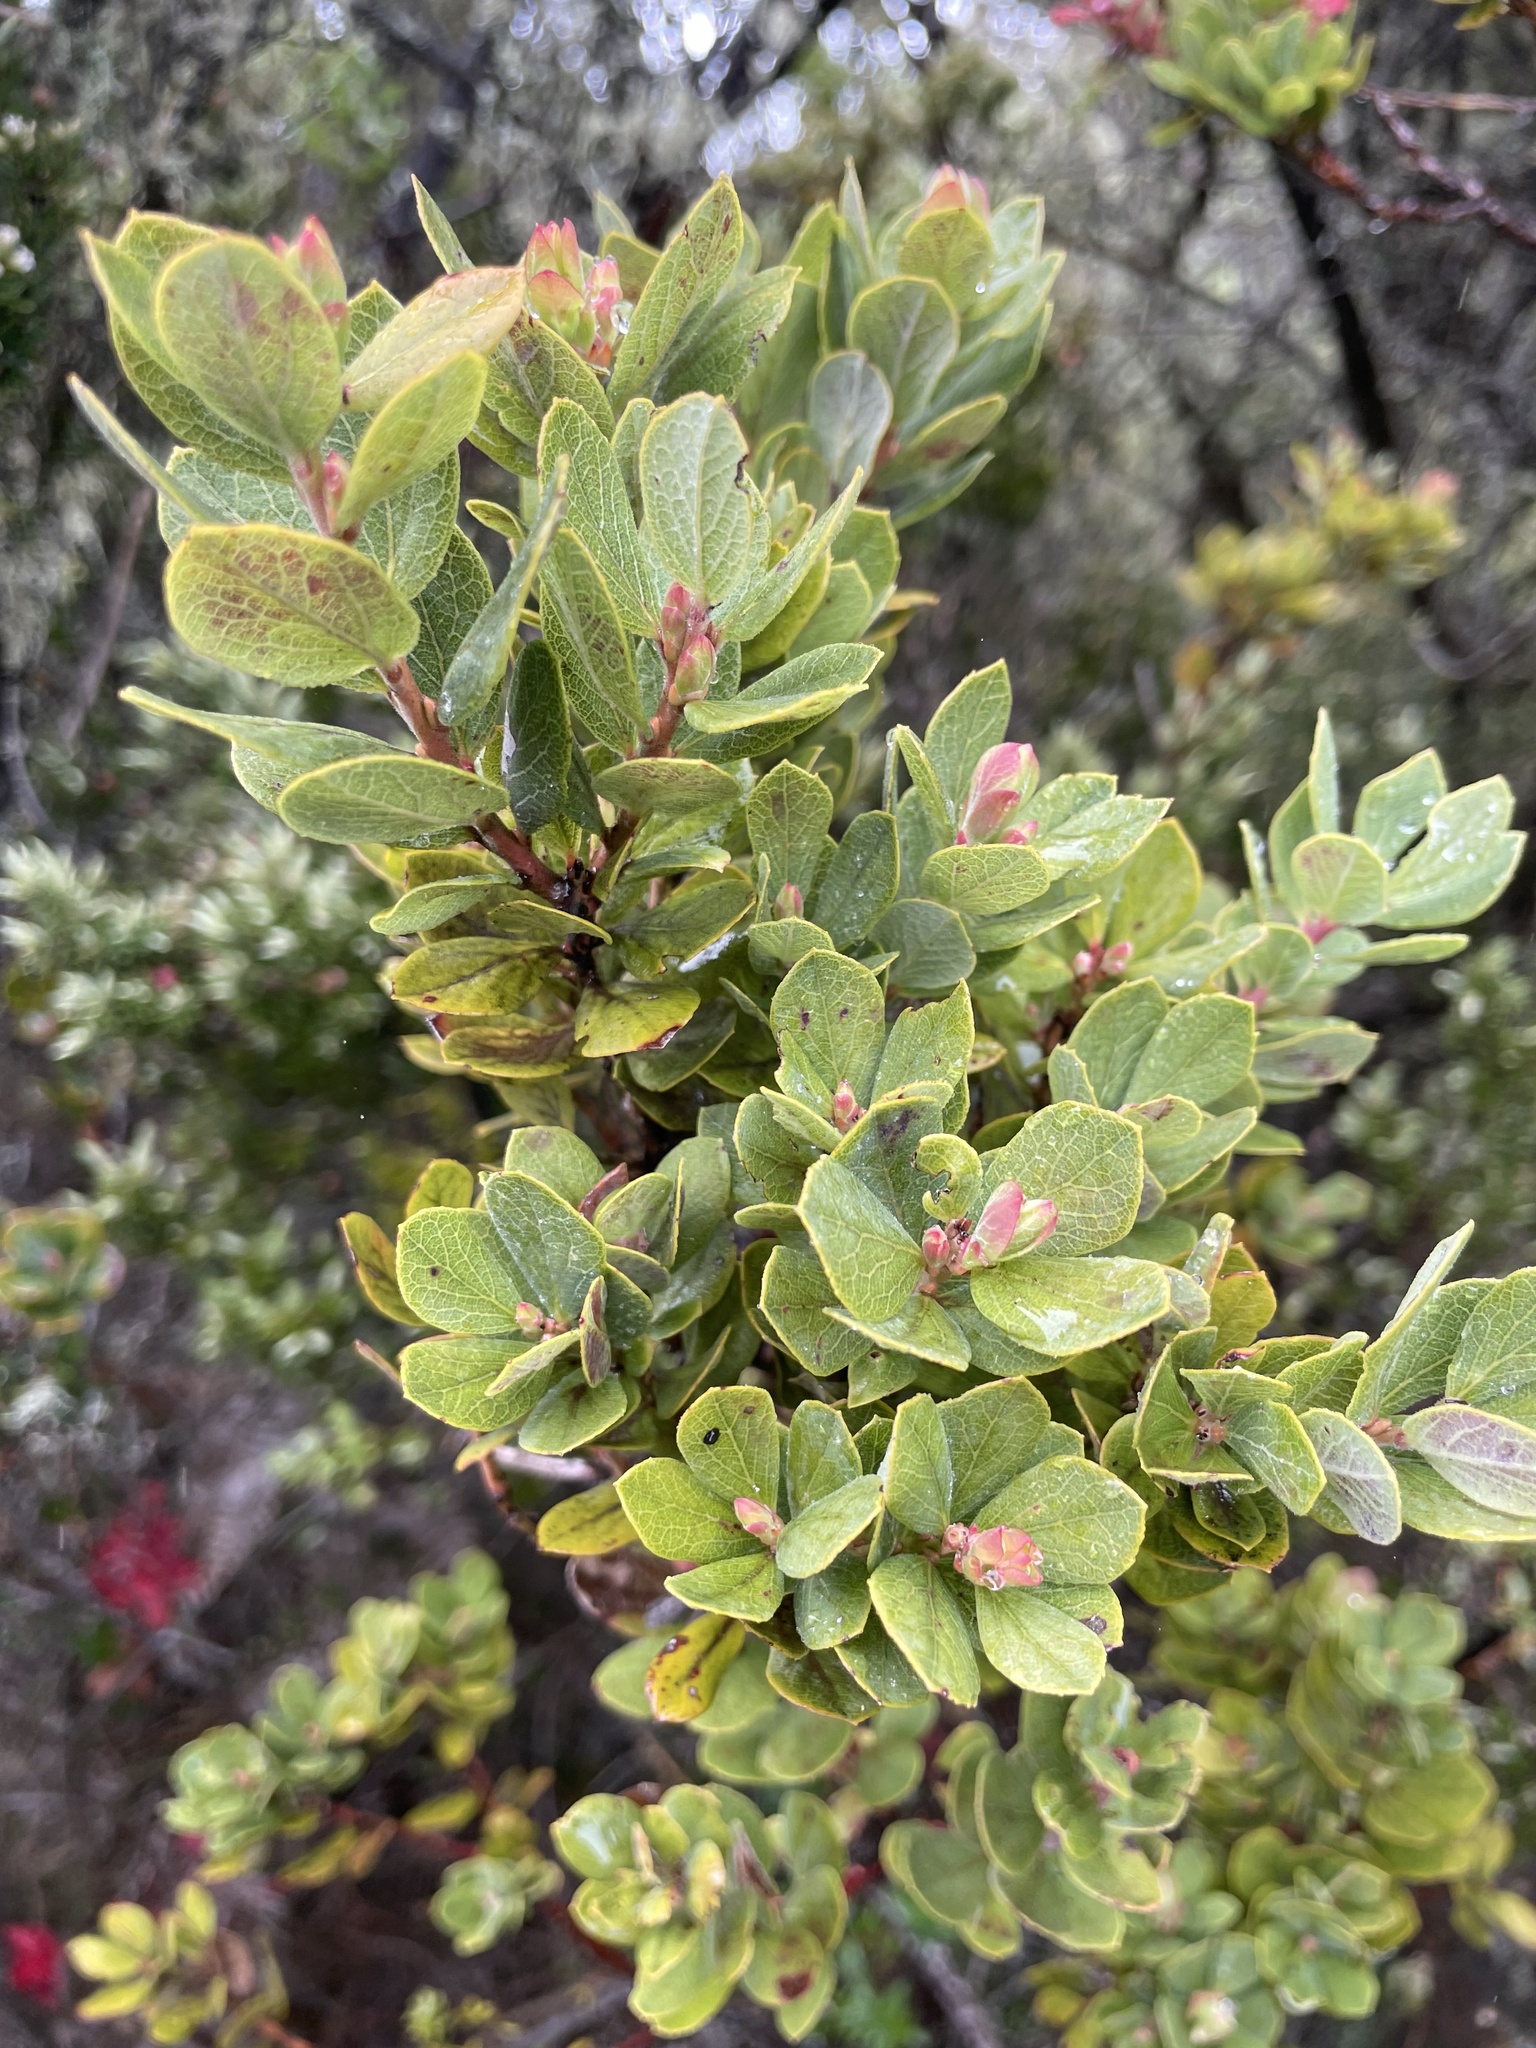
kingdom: Plantae
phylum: Tracheophyta
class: Magnoliopsida
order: Ericales
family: Ericaceae
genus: Vaccinium
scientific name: Vaccinium reticulatum
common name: Ohelo
